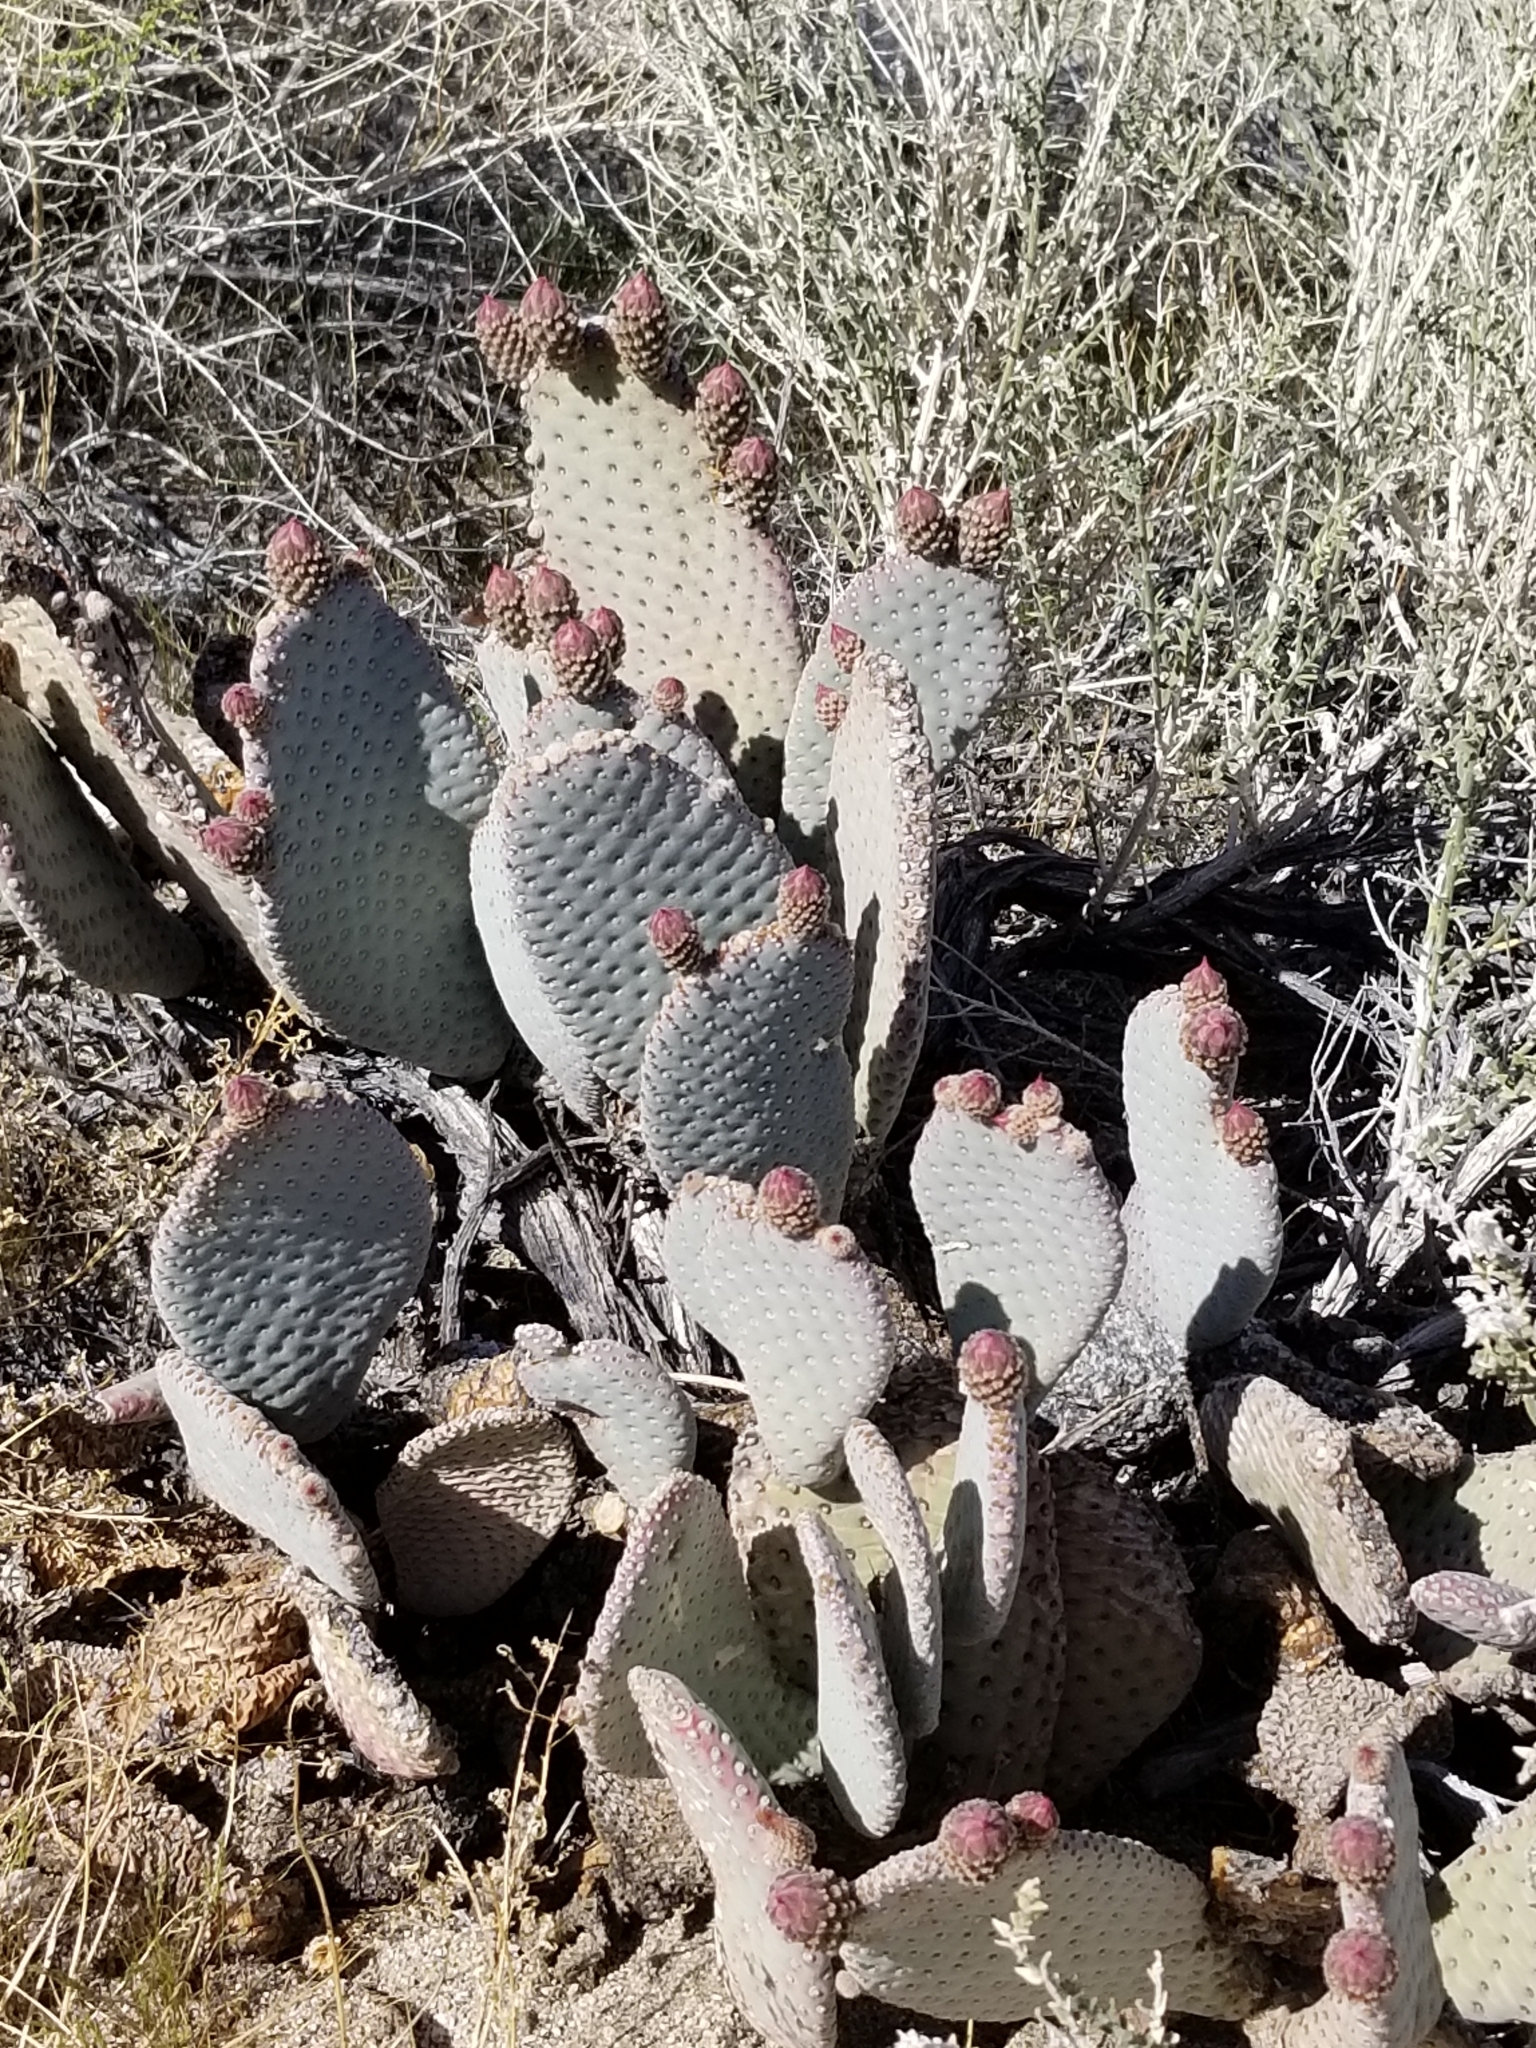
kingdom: Plantae
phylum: Tracheophyta
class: Magnoliopsida
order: Caryophyllales
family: Cactaceae
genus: Opuntia
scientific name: Opuntia basilaris
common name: Beavertail prickly-pear
